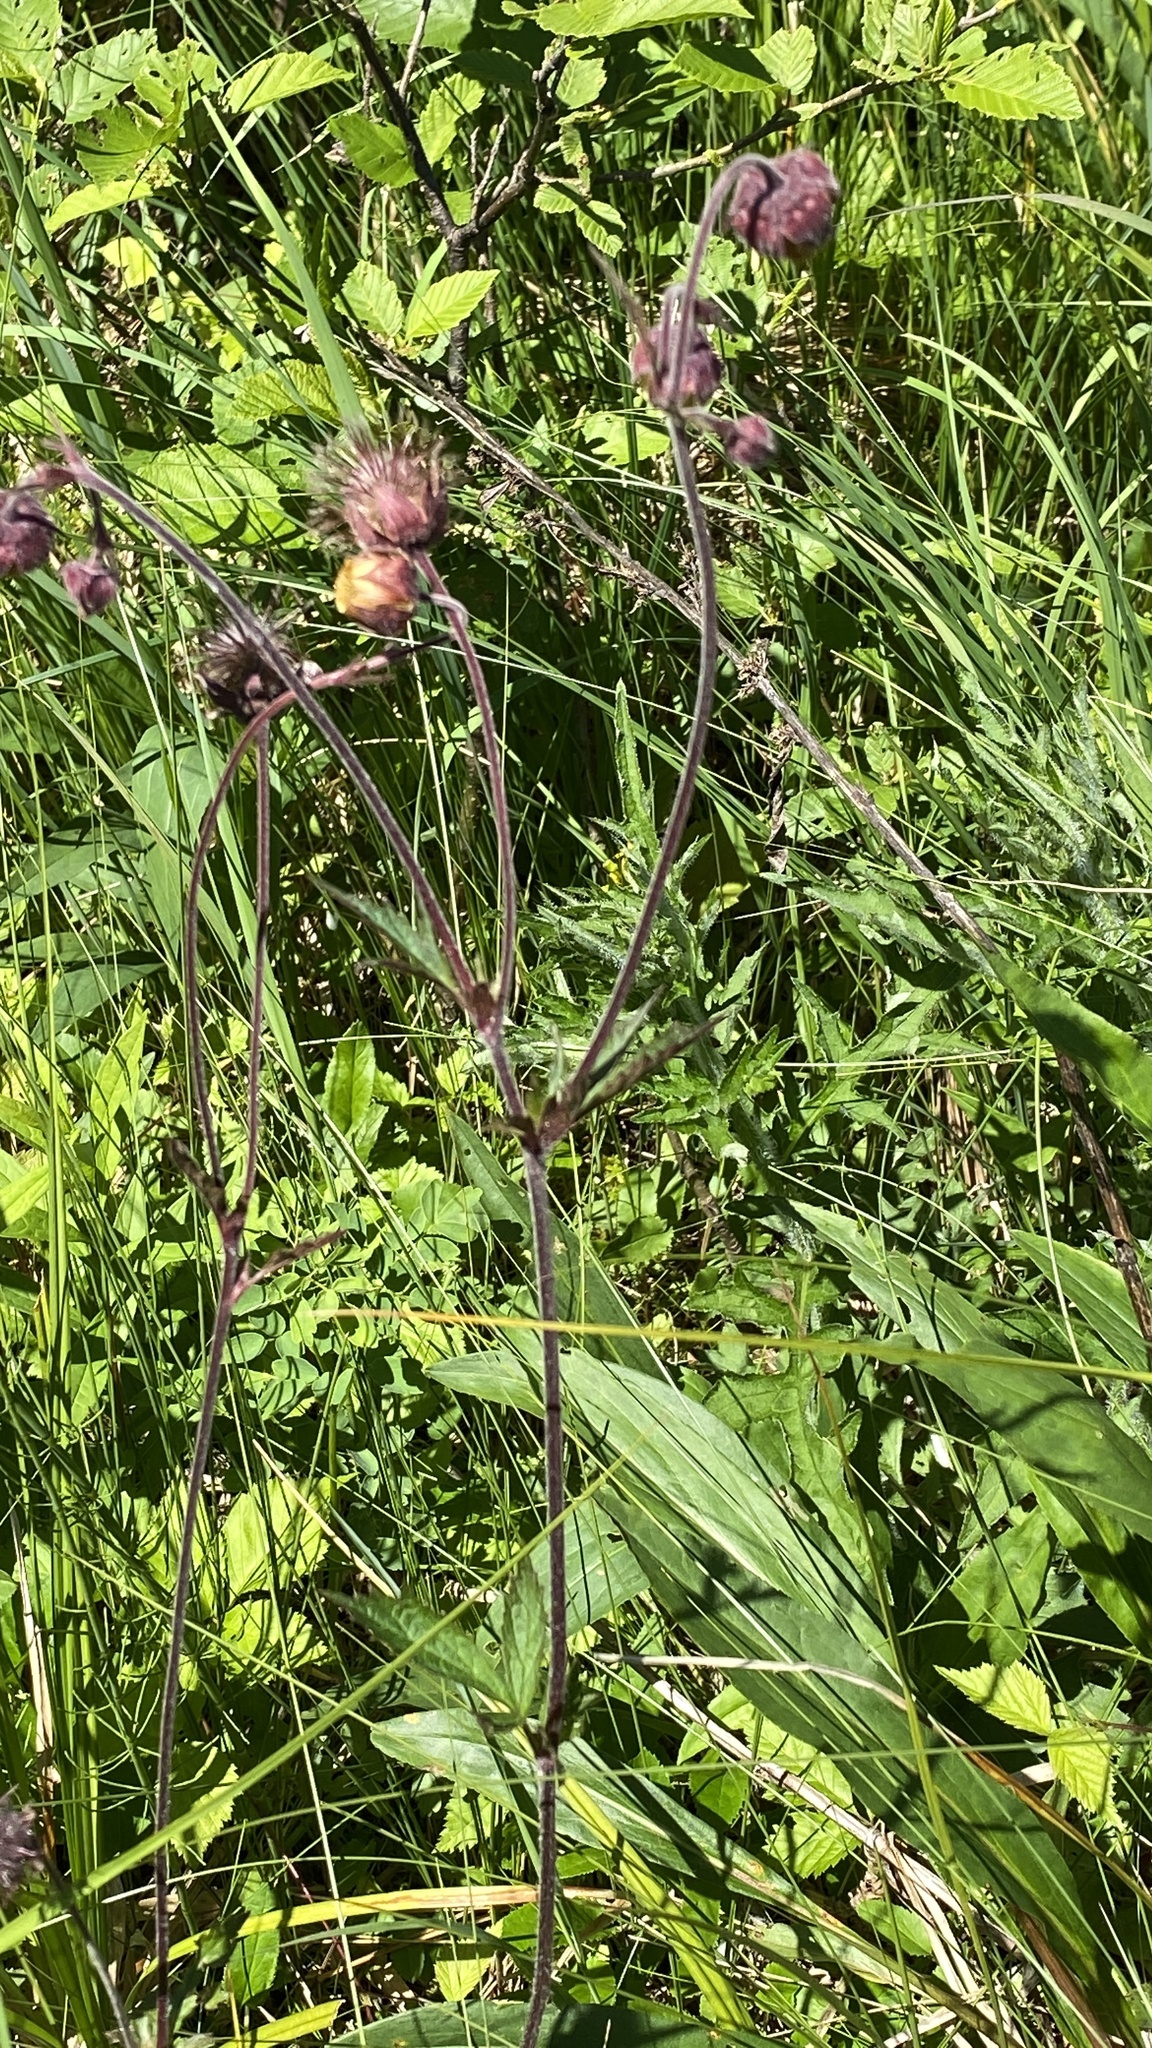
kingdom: Plantae
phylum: Tracheophyta
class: Magnoliopsida
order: Rosales
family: Rosaceae
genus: Geum
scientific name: Geum rivale
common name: Water avens
